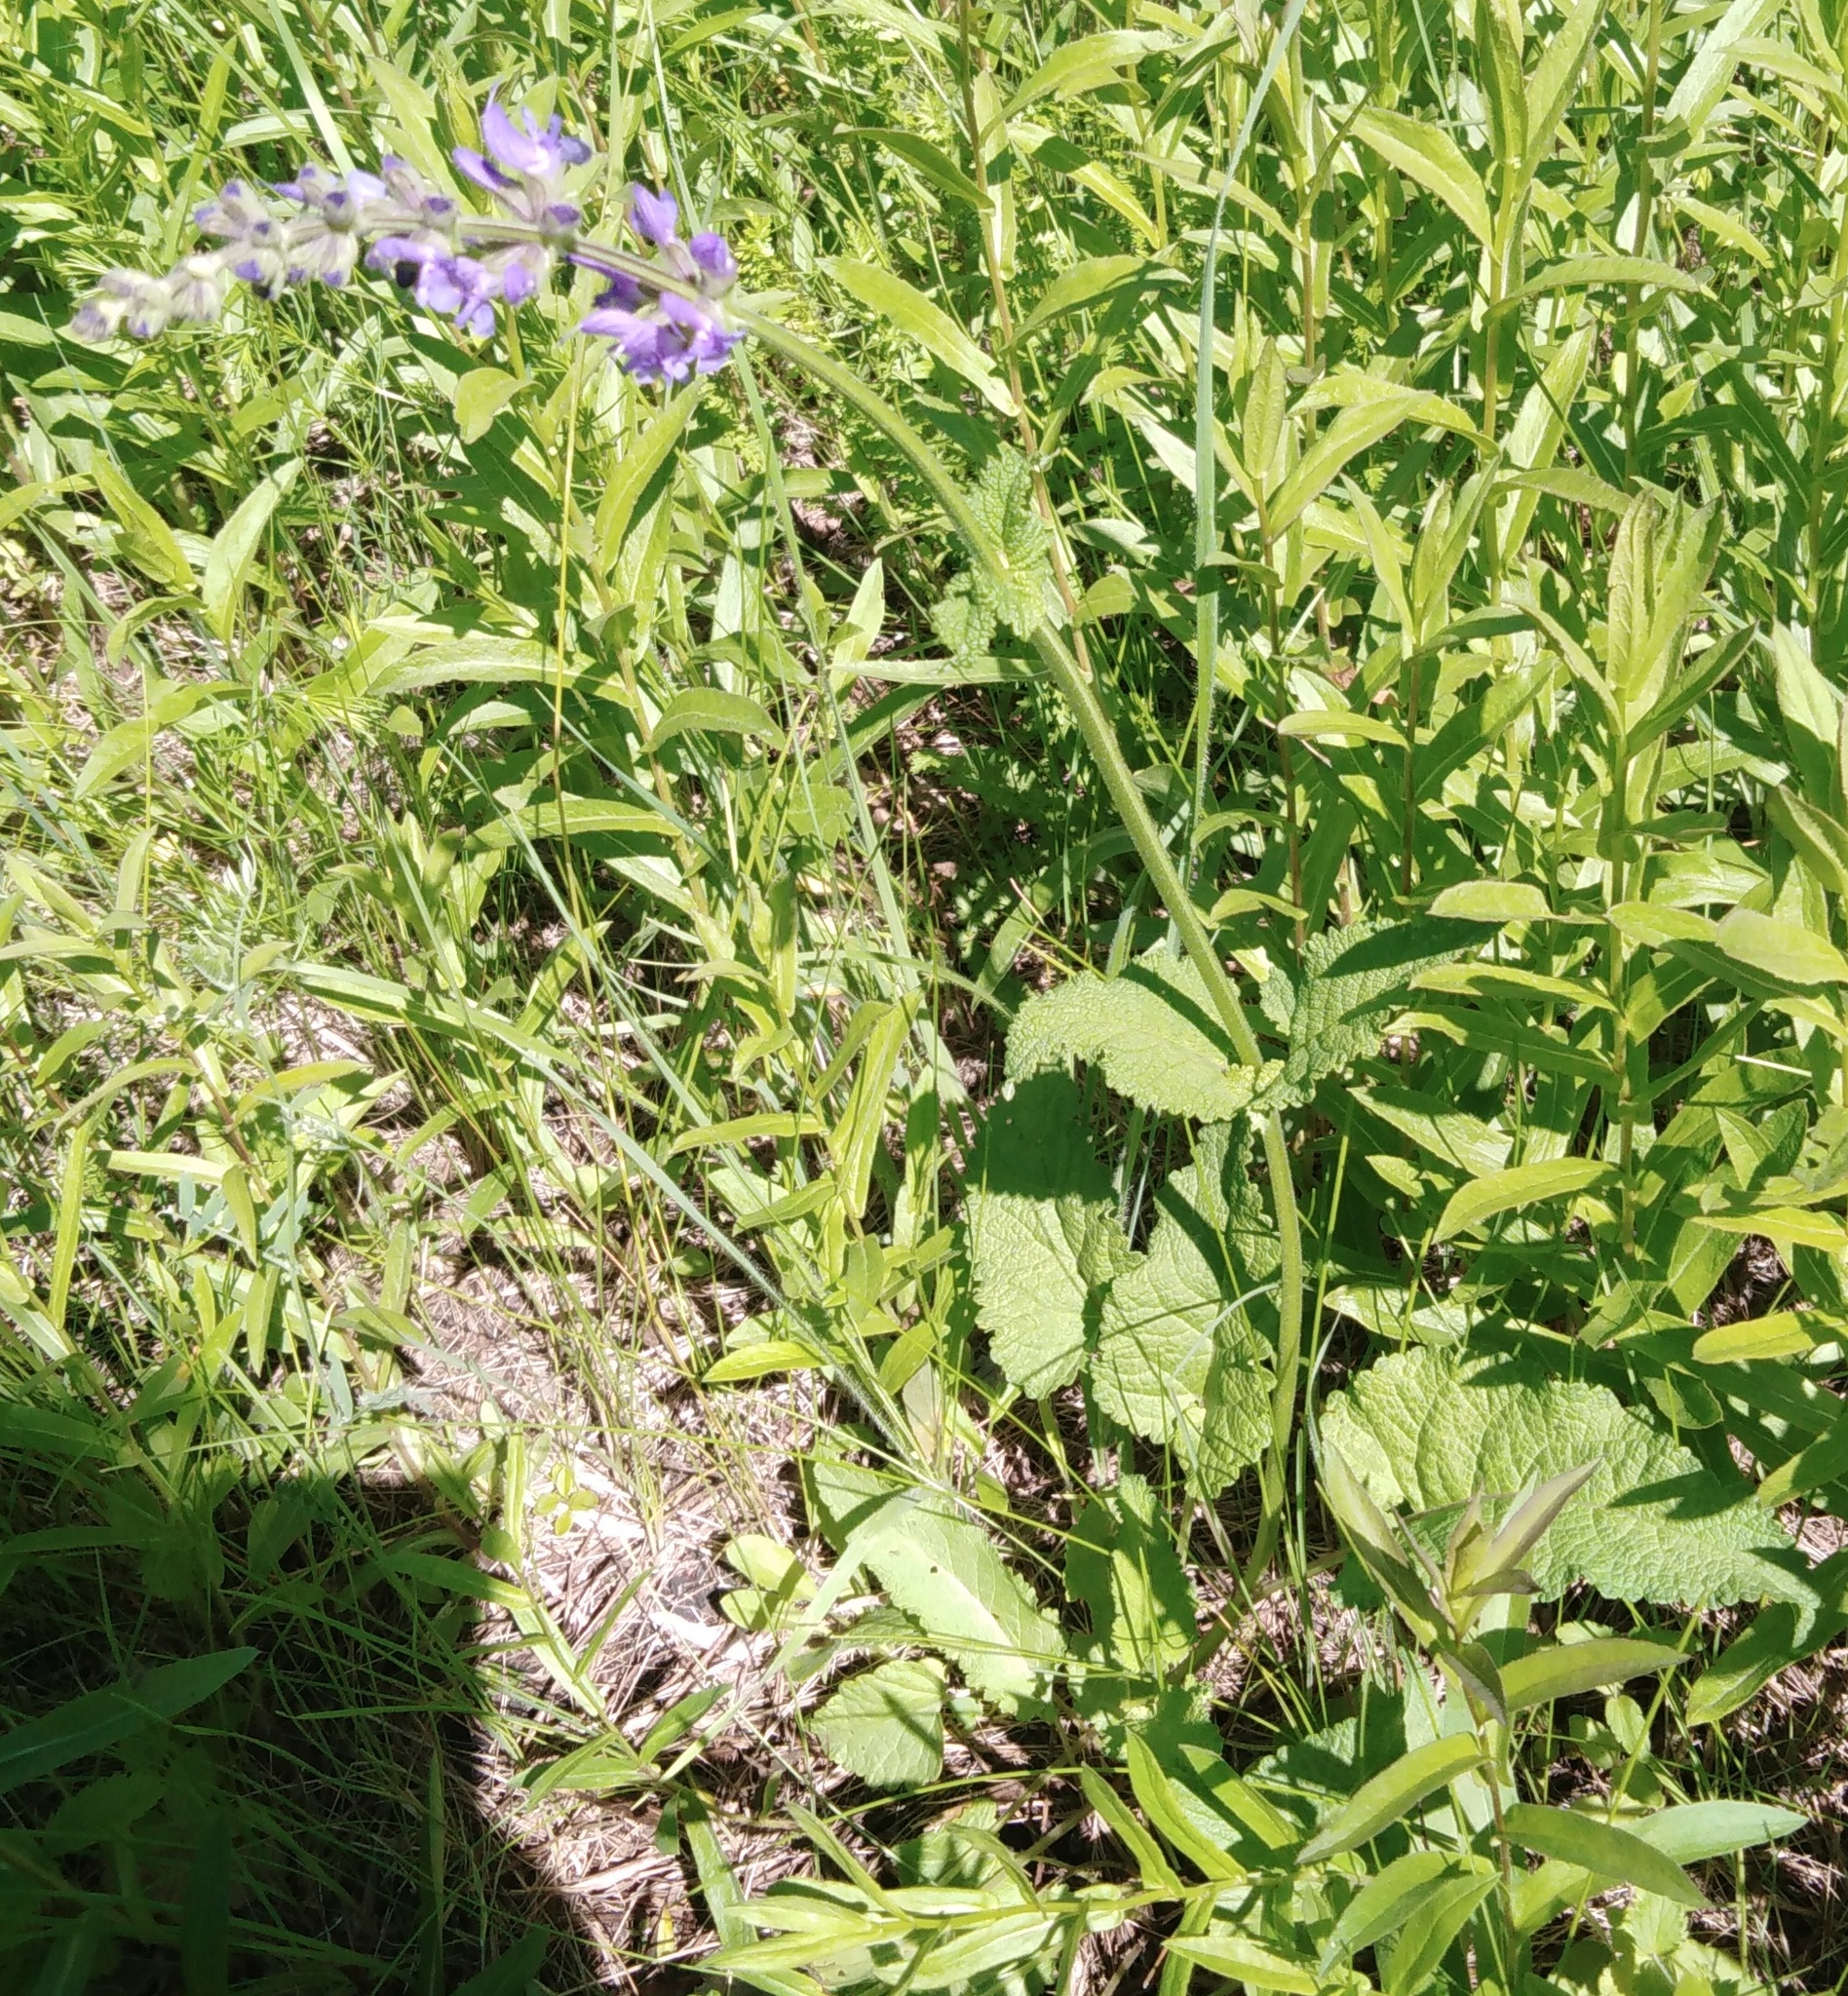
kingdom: Plantae
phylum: Tracheophyta
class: Magnoliopsida
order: Lamiales
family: Lamiaceae
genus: Salvia
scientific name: Salvia dumetorum
